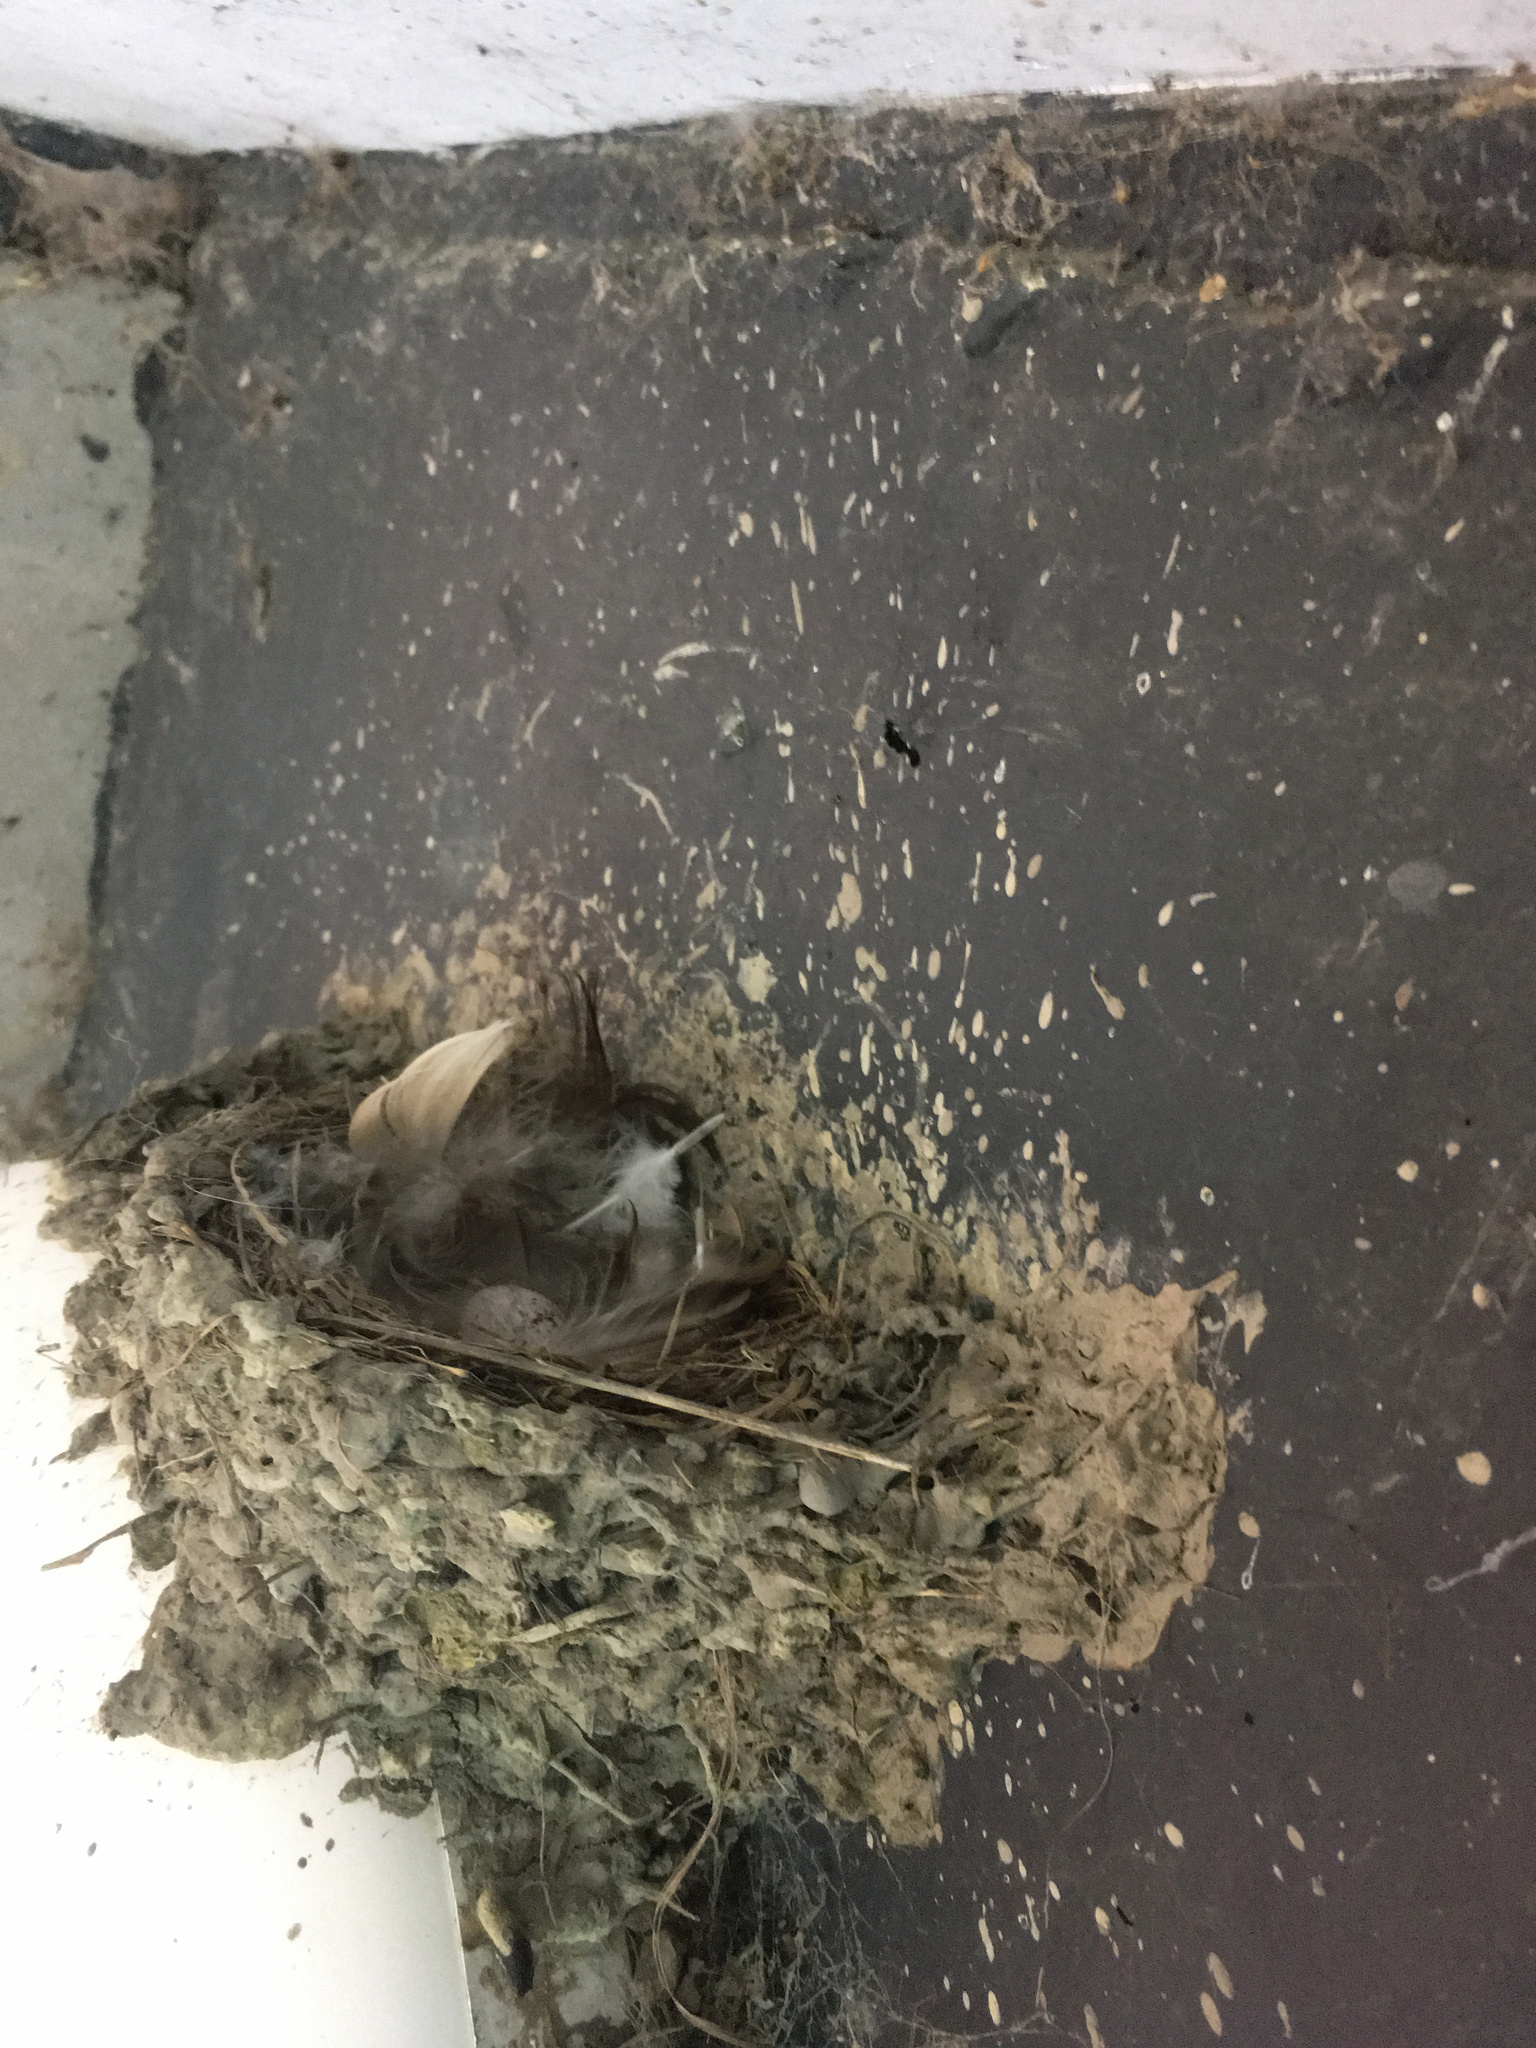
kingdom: Animalia
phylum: Chordata
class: Aves
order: Passeriformes
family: Hirundinidae
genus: Hirundo
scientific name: Hirundo neoxena
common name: Welcome swallow
